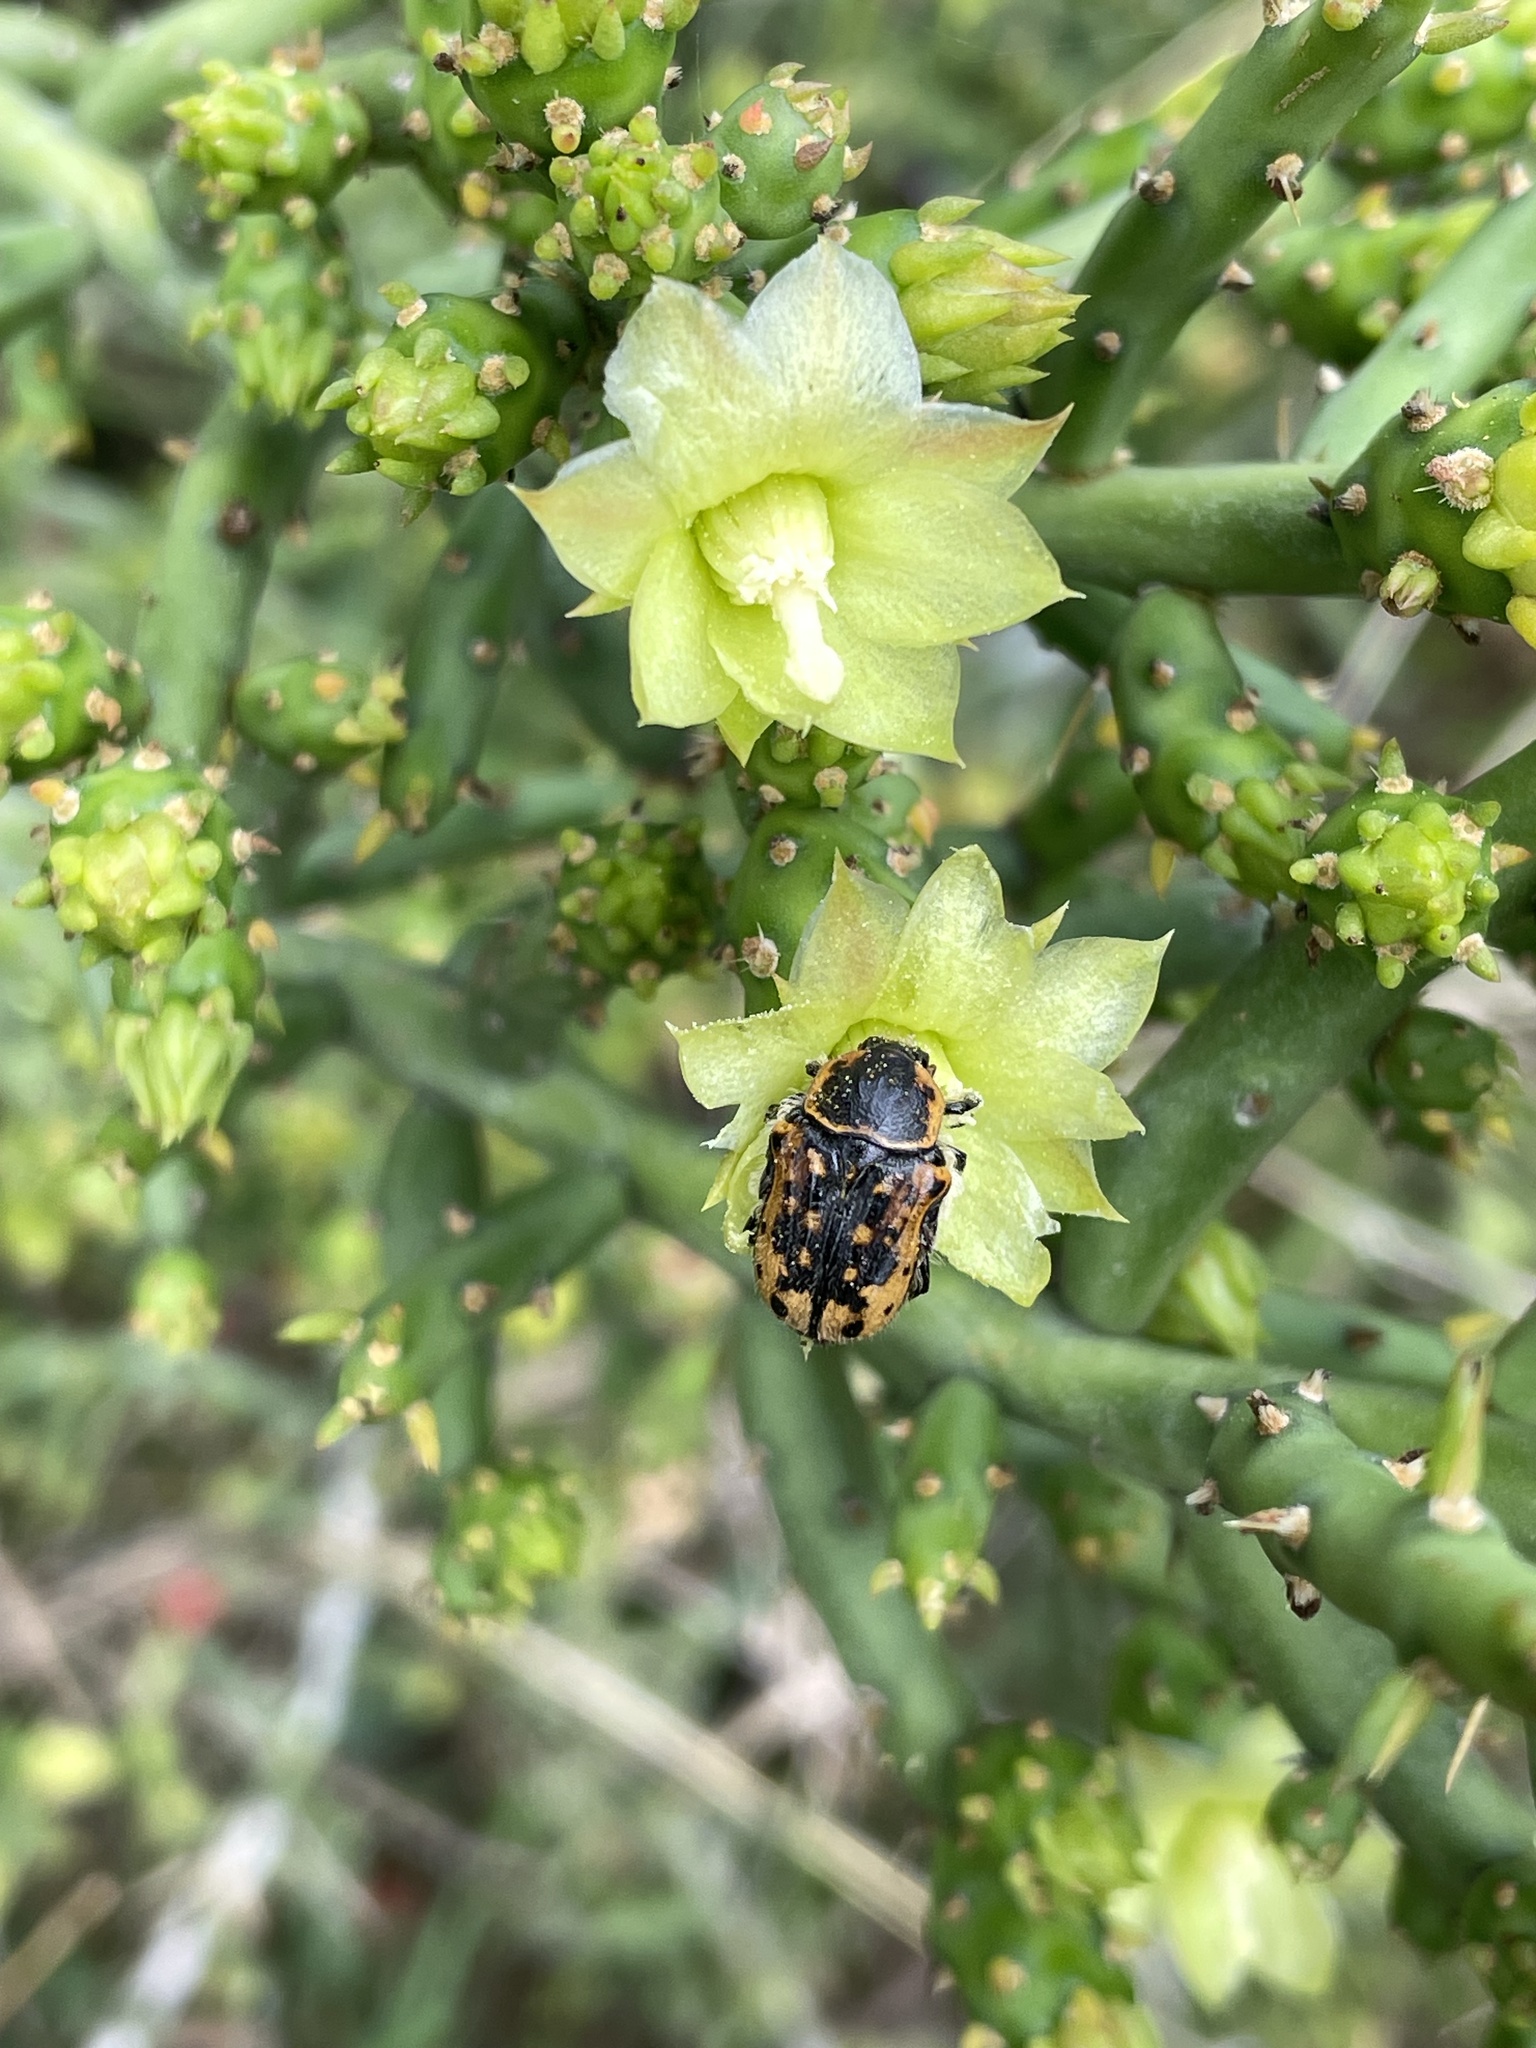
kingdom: Animalia
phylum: Arthropoda
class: Insecta
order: Coleoptera
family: Scarabaeidae
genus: Euphoria
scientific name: Euphoria kernii
